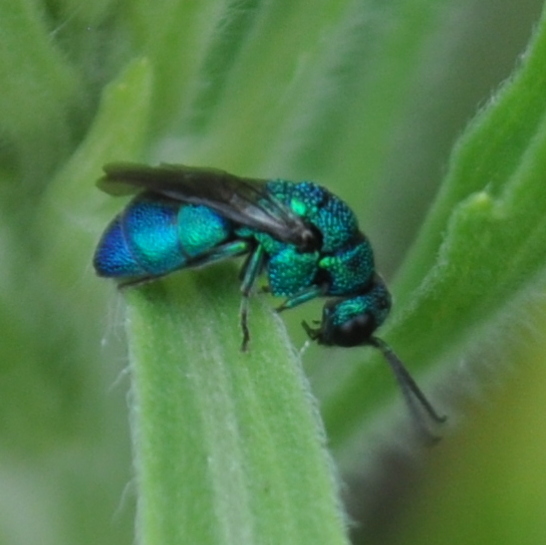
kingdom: Animalia
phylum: Arthropoda
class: Insecta
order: Hymenoptera
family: Chrysididae
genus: Holopyga
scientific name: Holopyga
